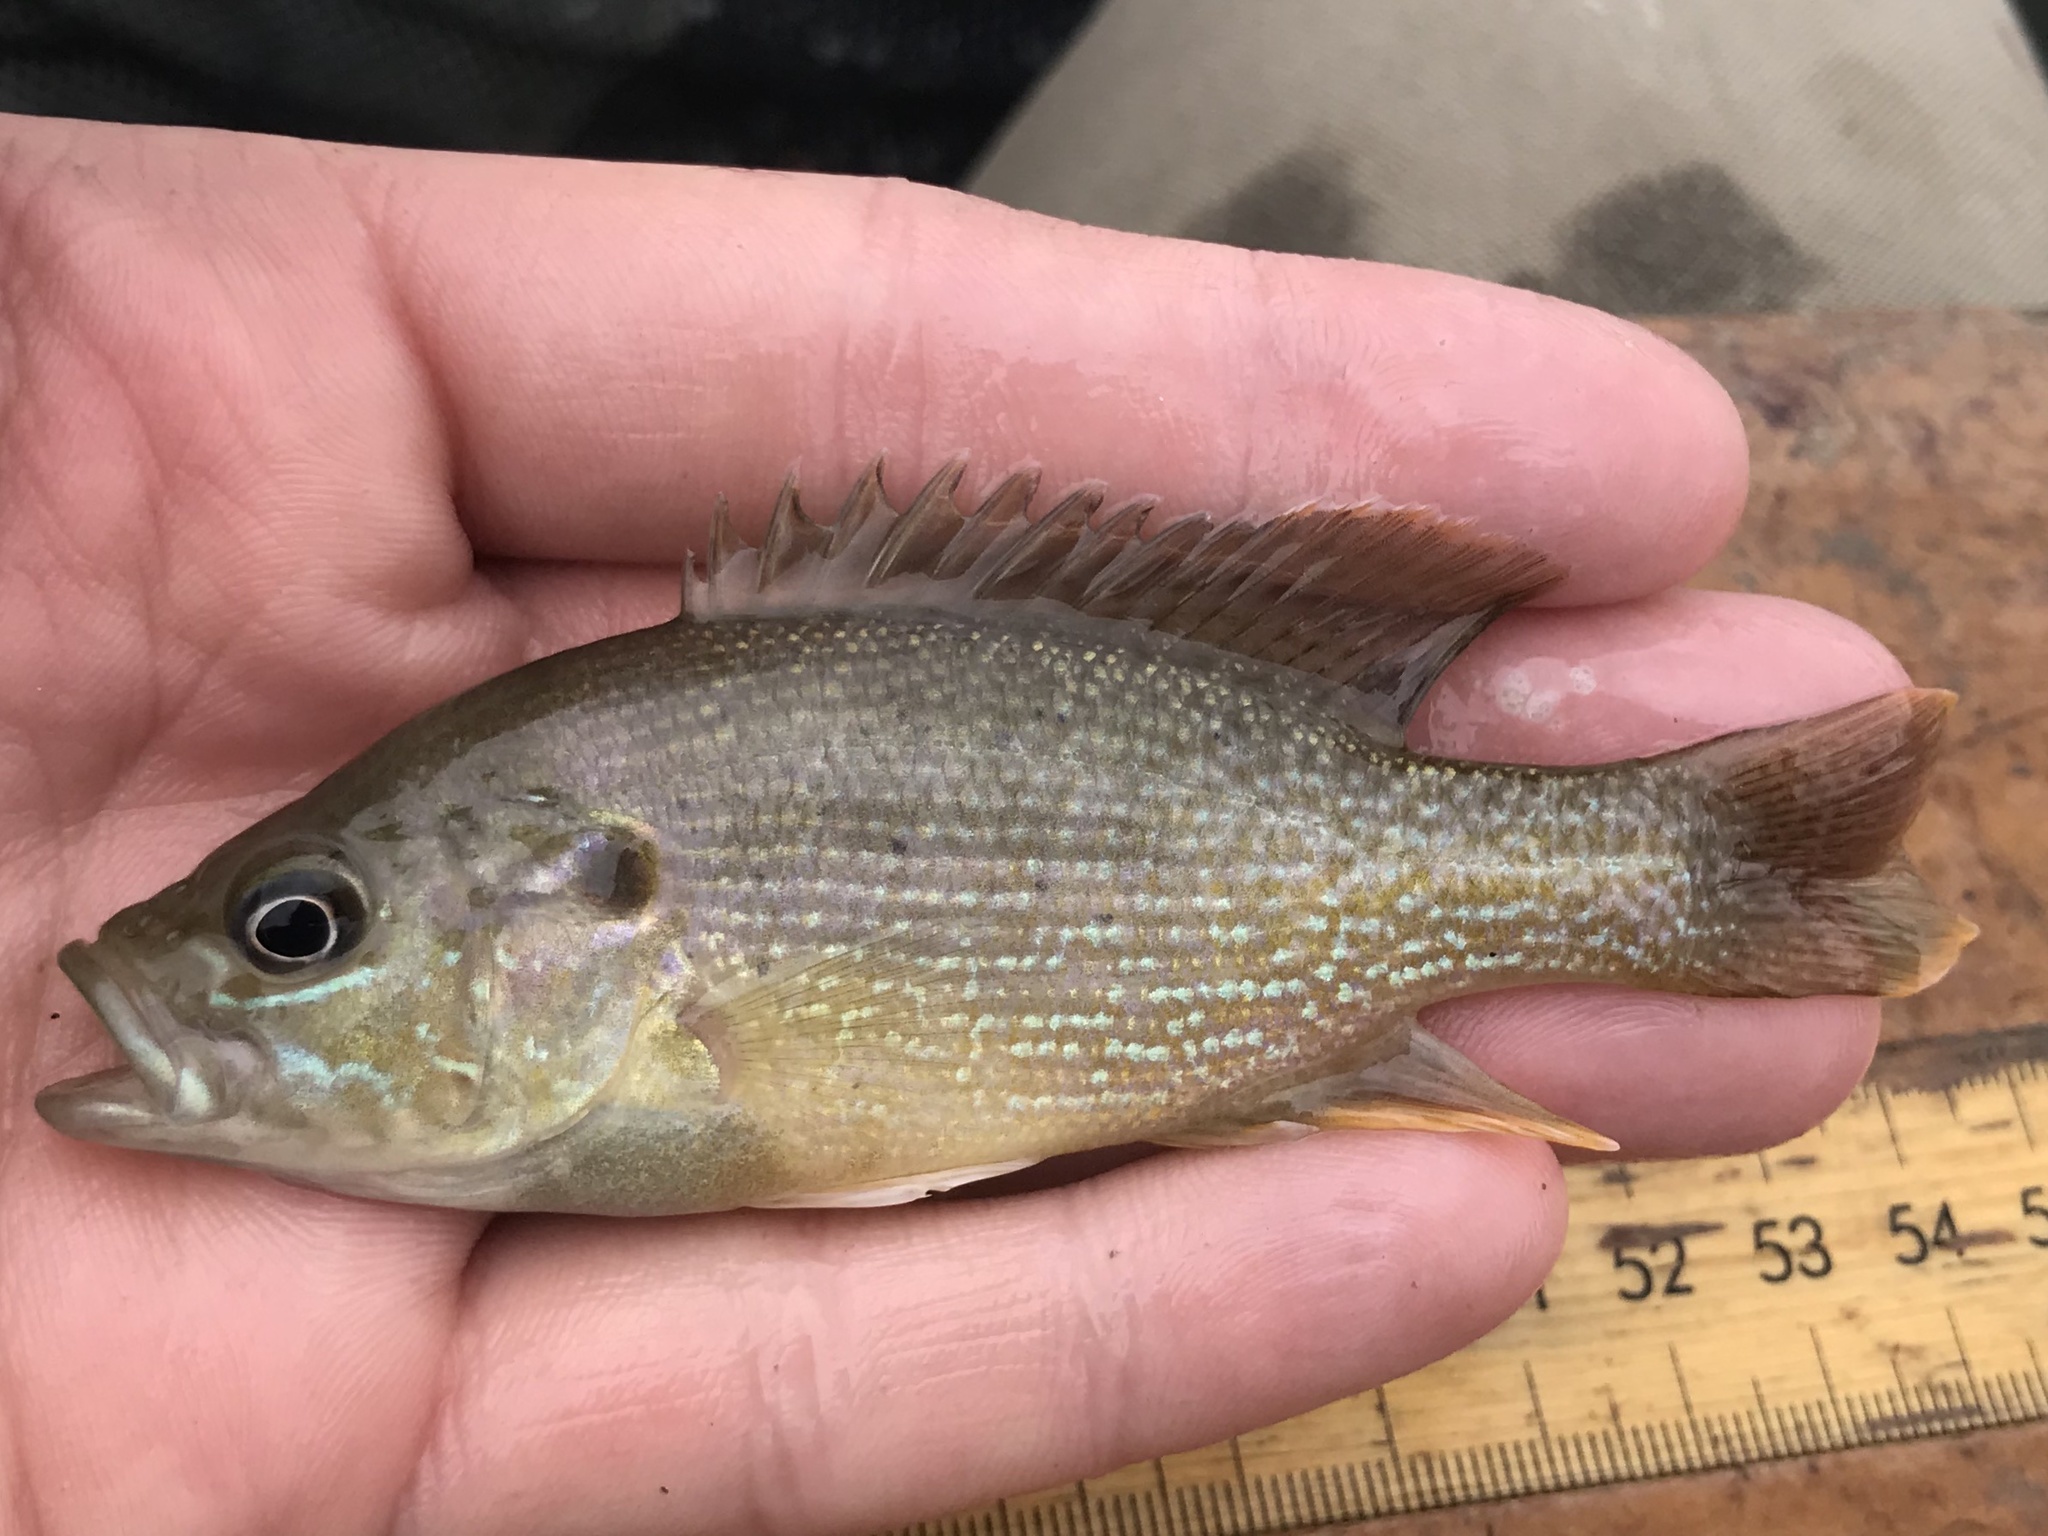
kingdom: Animalia
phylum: Chordata
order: Perciformes
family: Centrarchidae
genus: Lepomis
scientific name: Lepomis cyanellus
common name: Green sunfish
